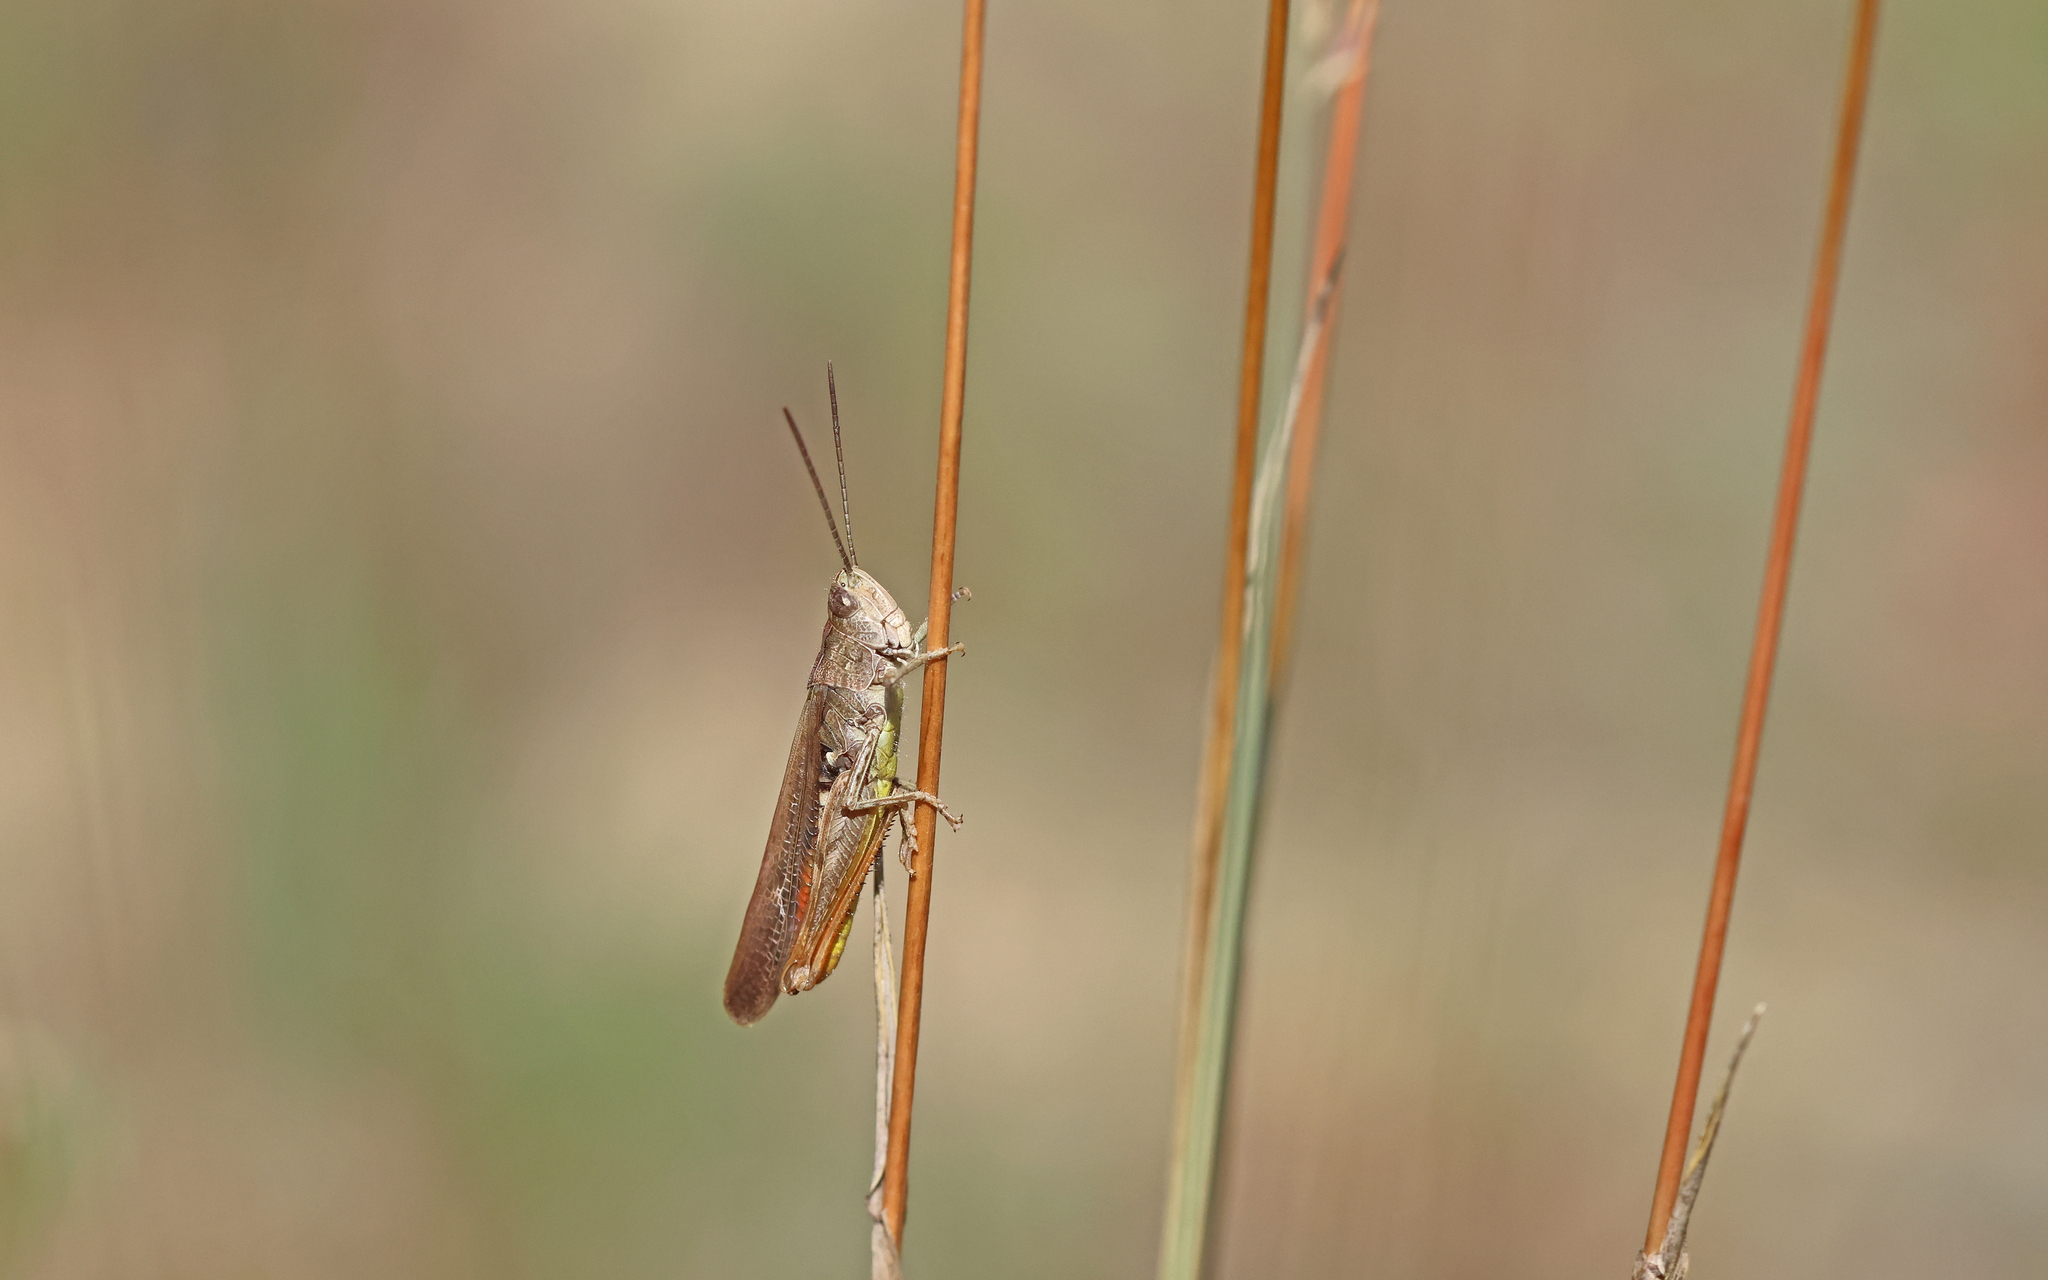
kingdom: Animalia
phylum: Arthropoda
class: Insecta
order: Orthoptera
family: Acrididae
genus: Chorthippus
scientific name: Chorthippus brunneus
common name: Field grasshopper
